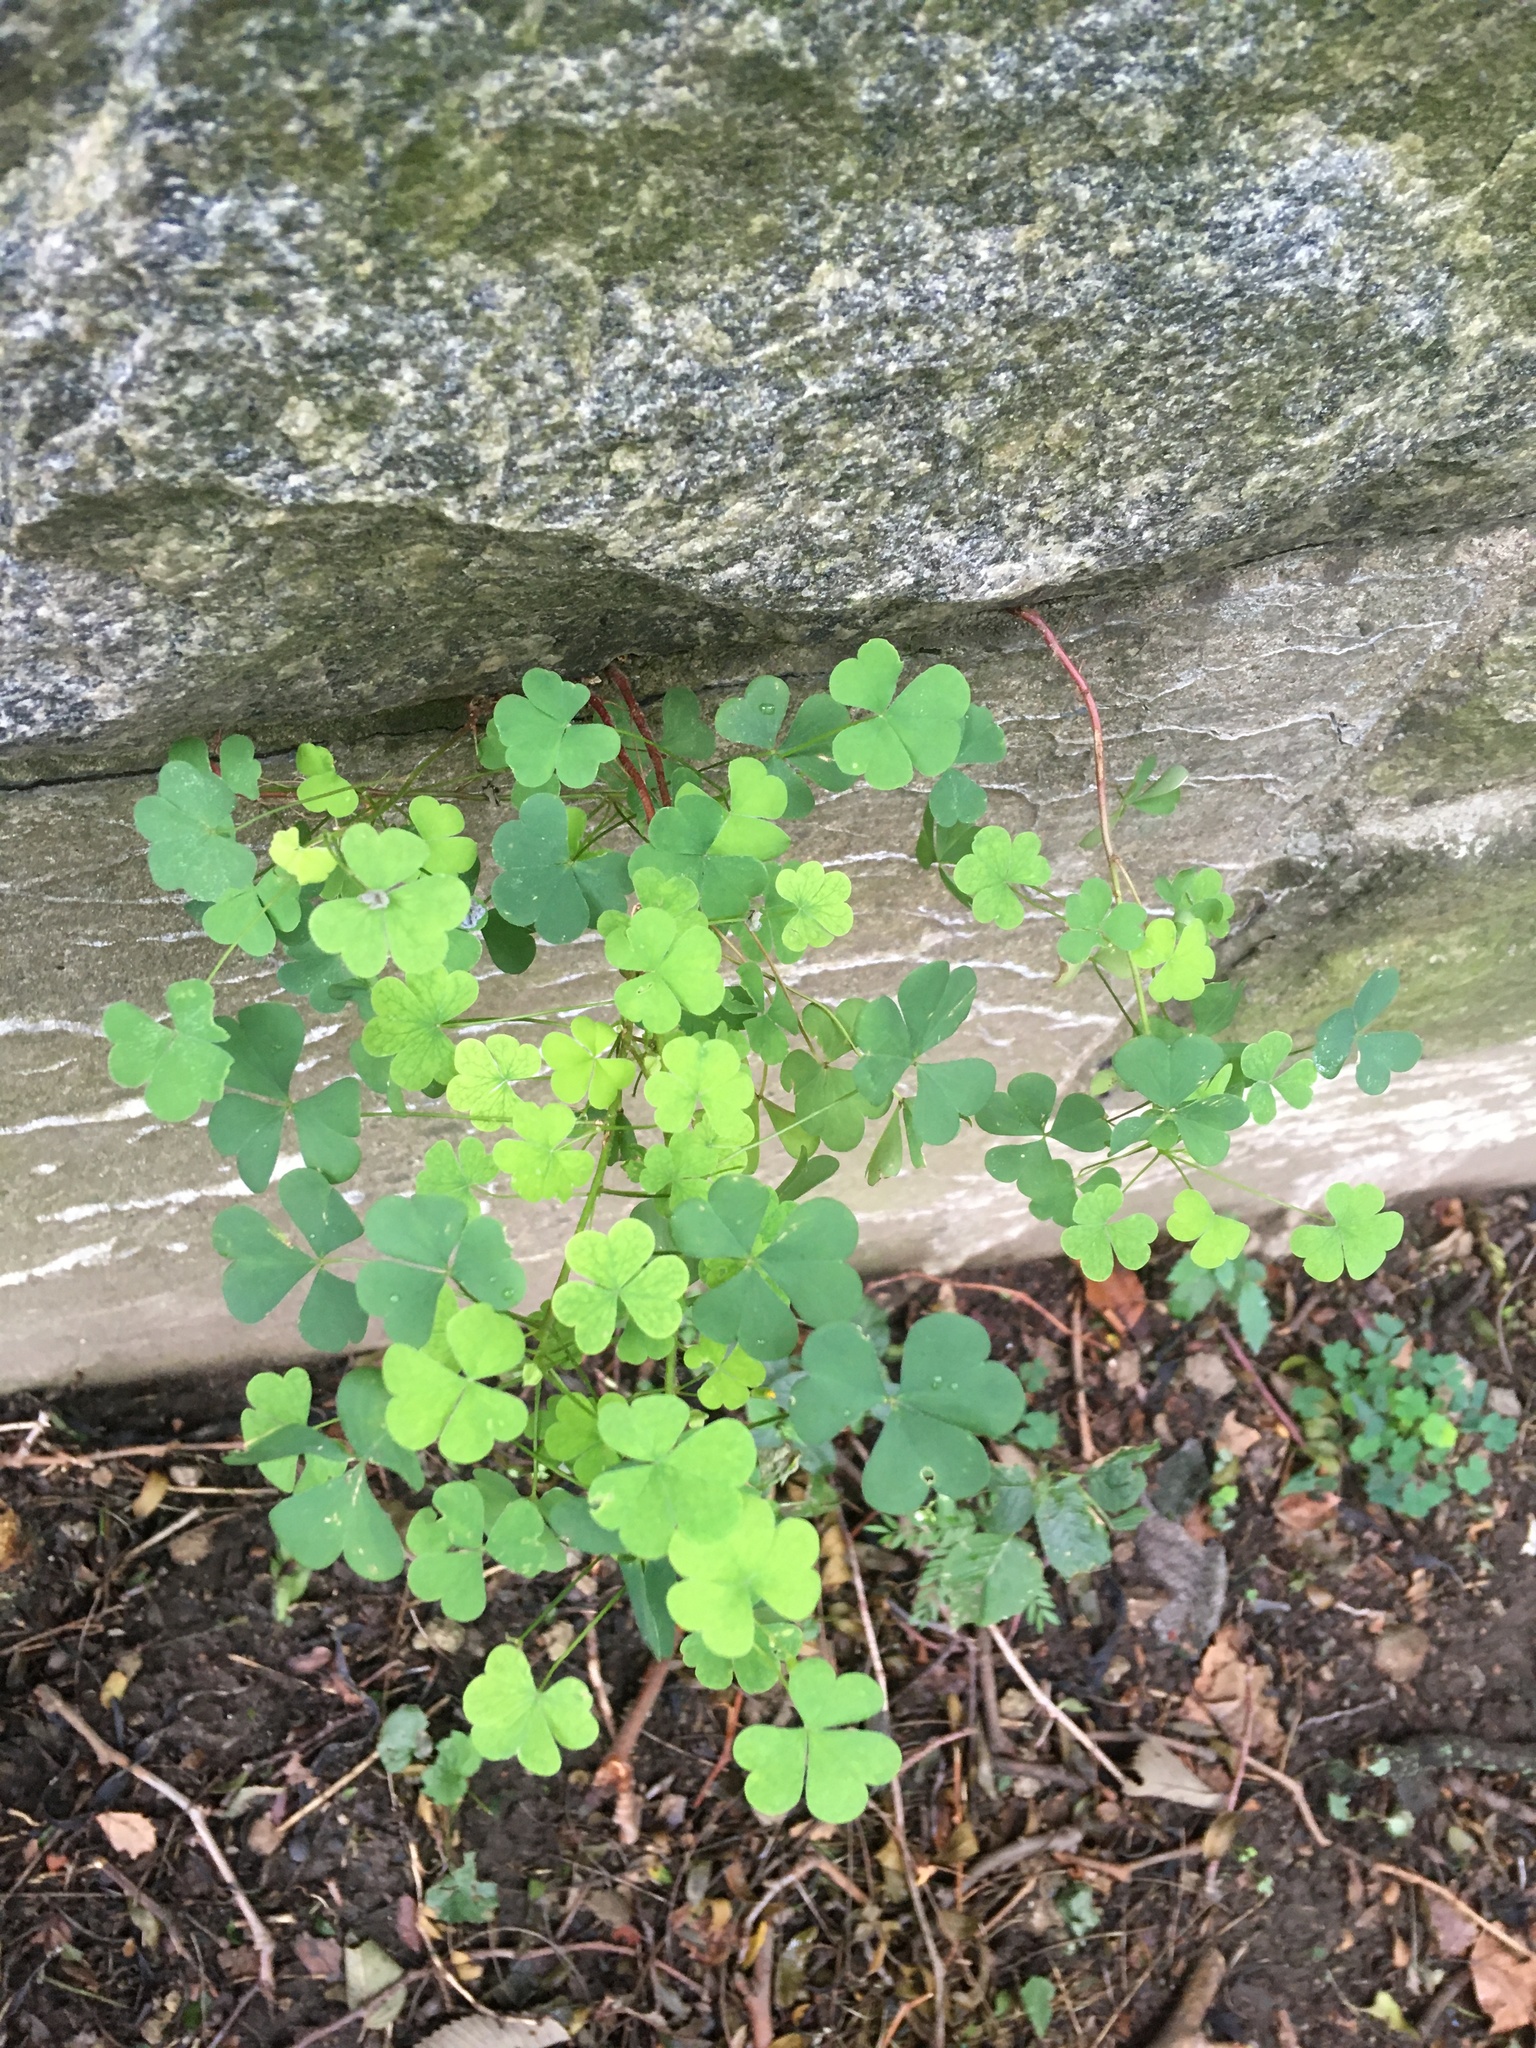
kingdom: Plantae
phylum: Tracheophyta
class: Magnoliopsida
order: Oxalidales
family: Oxalidaceae
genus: Oxalis
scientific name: Oxalis corniculata
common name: Procumbent yellow-sorrel
